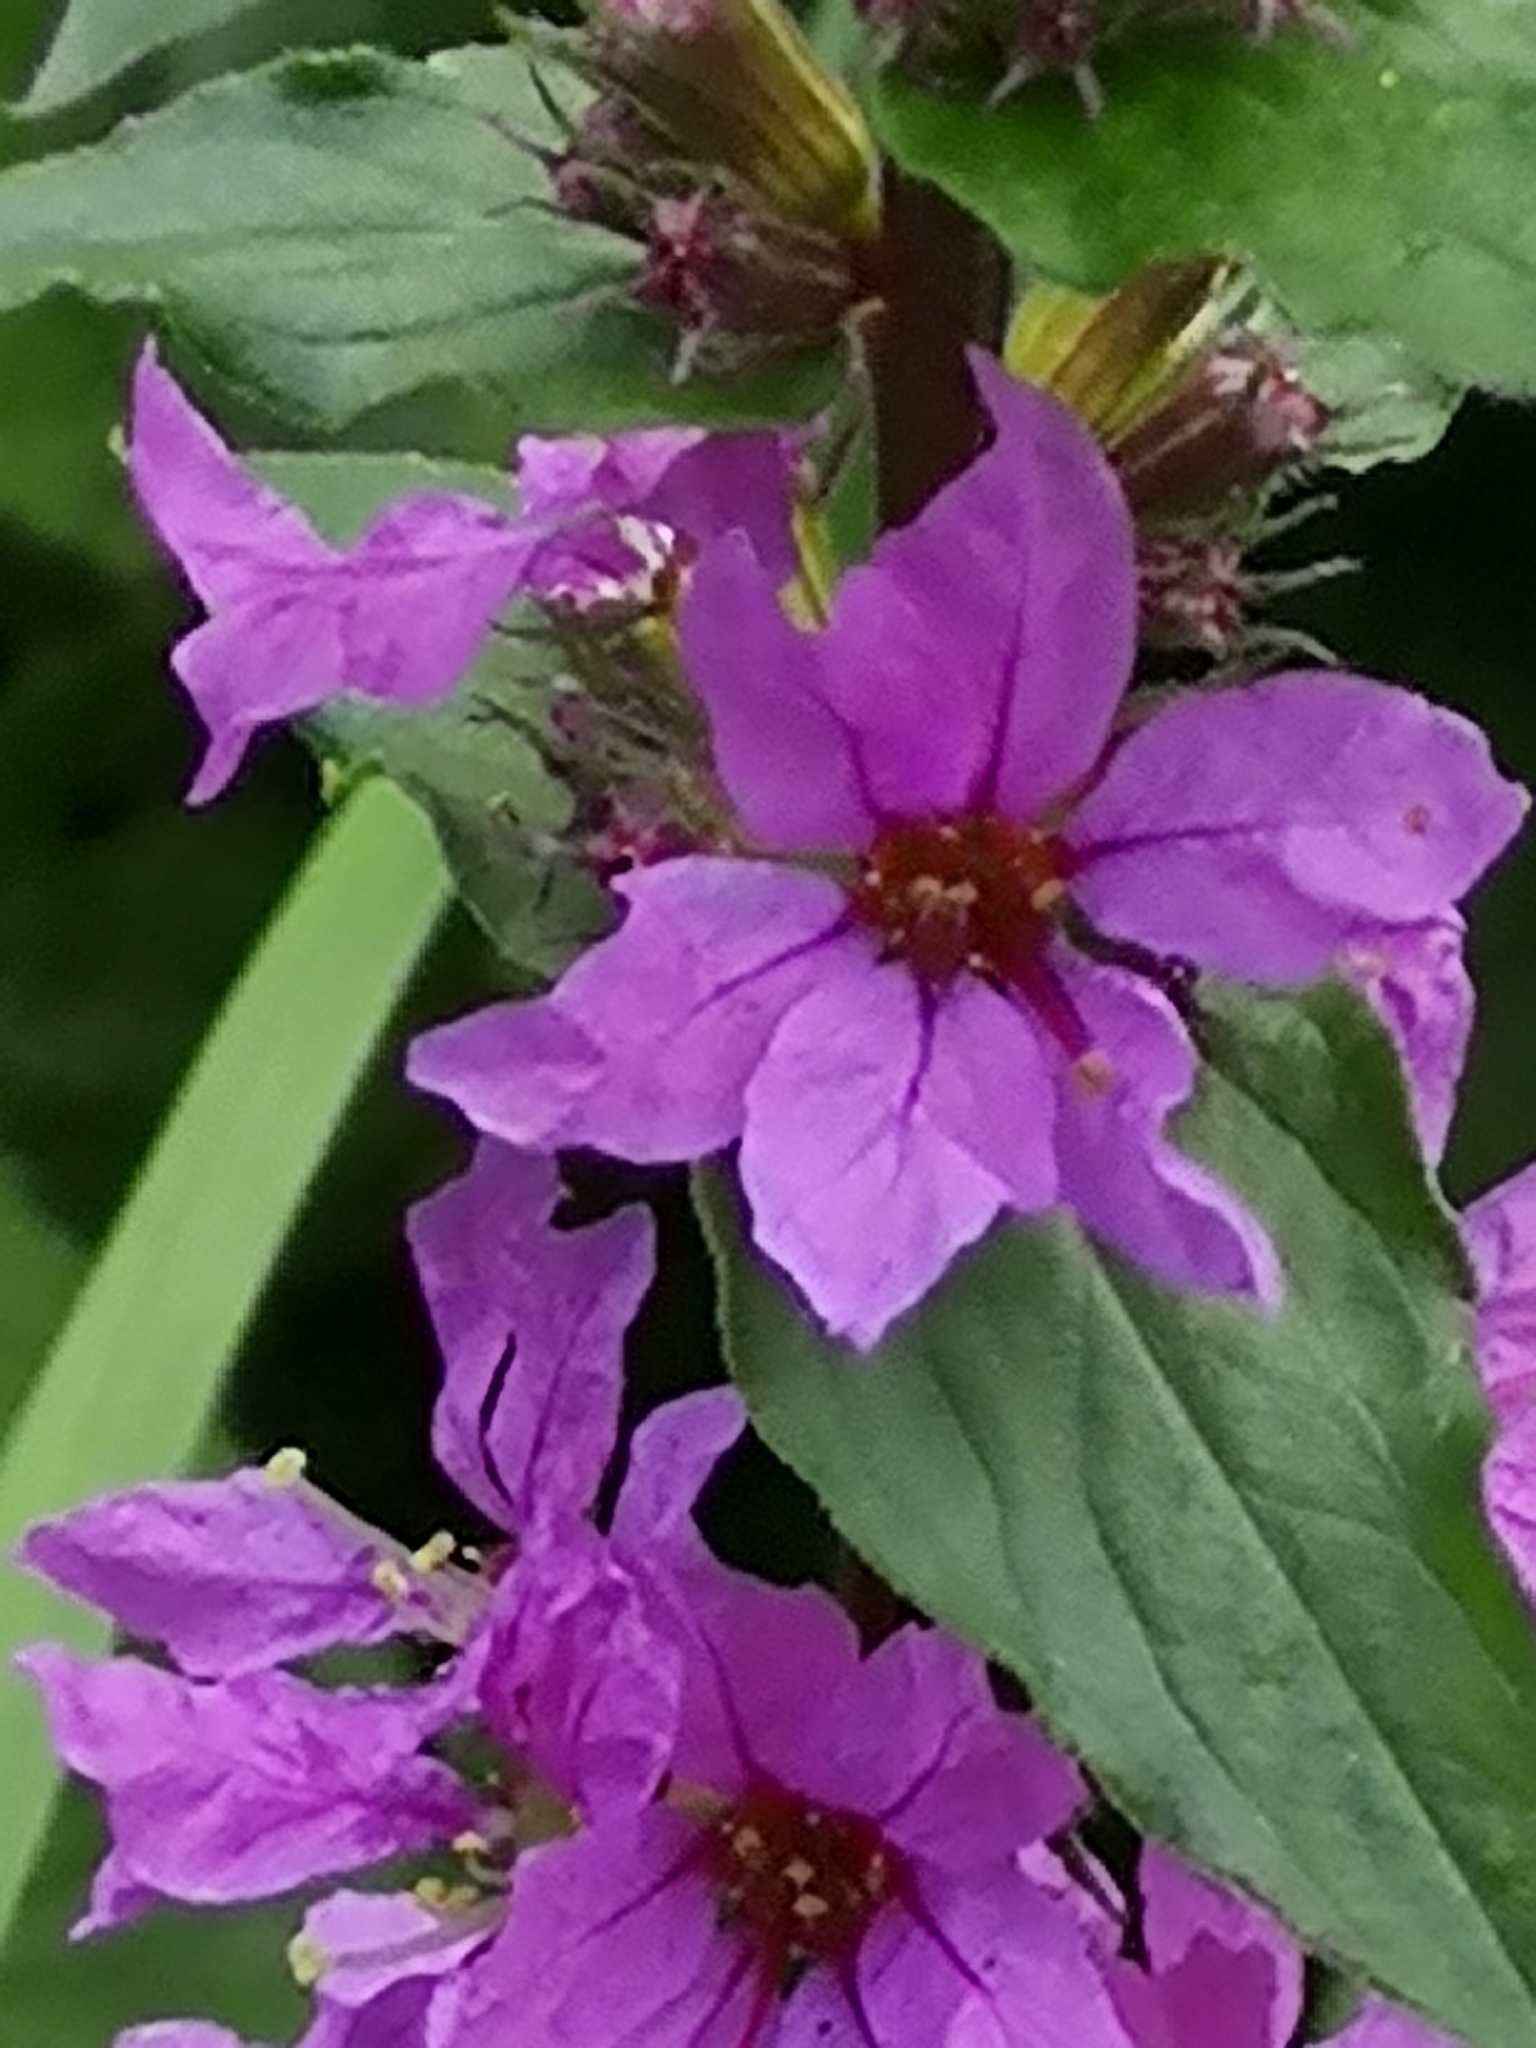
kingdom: Plantae
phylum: Tracheophyta
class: Magnoliopsida
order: Myrtales
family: Lythraceae
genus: Lythrum
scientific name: Lythrum salicaria
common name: Purple loosestrife
